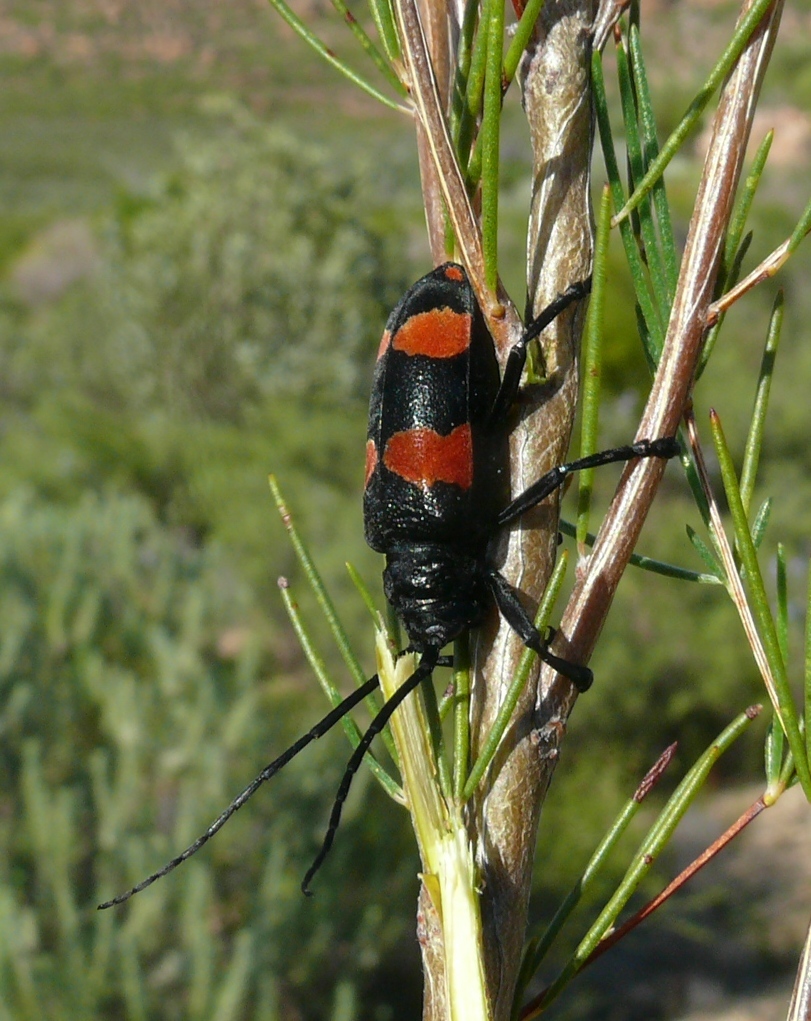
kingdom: Animalia
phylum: Arthropoda
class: Insecta
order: Coleoptera
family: Cerambycidae
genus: Ceroplesis
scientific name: Ceroplesis aethiops
